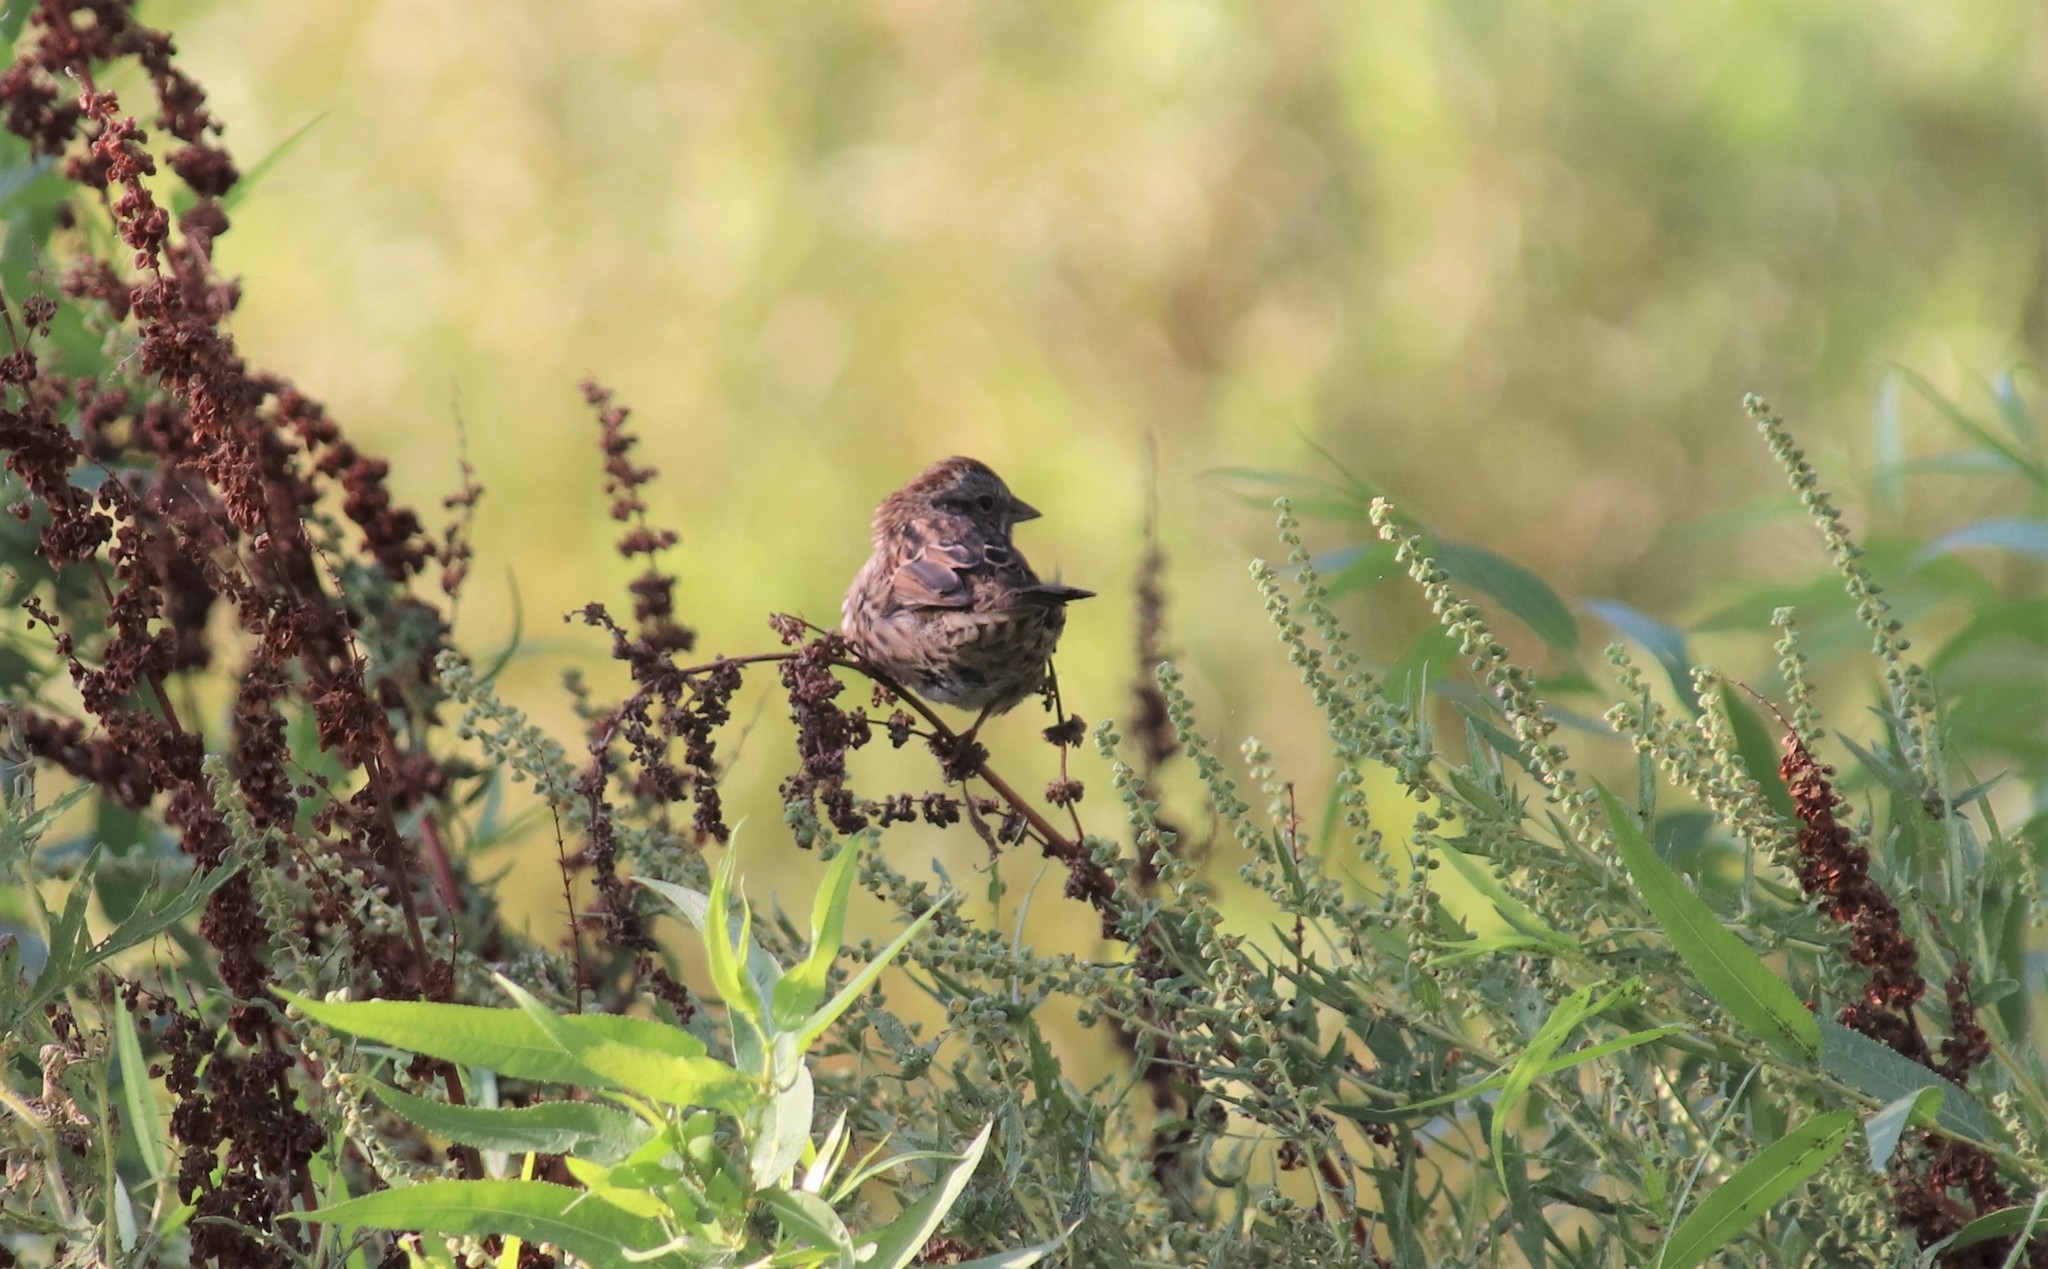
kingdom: Animalia
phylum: Chordata
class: Aves
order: Passeriformes
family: Passerellidae
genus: Melospiza
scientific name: Melospiza melodia
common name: Song sparrow
